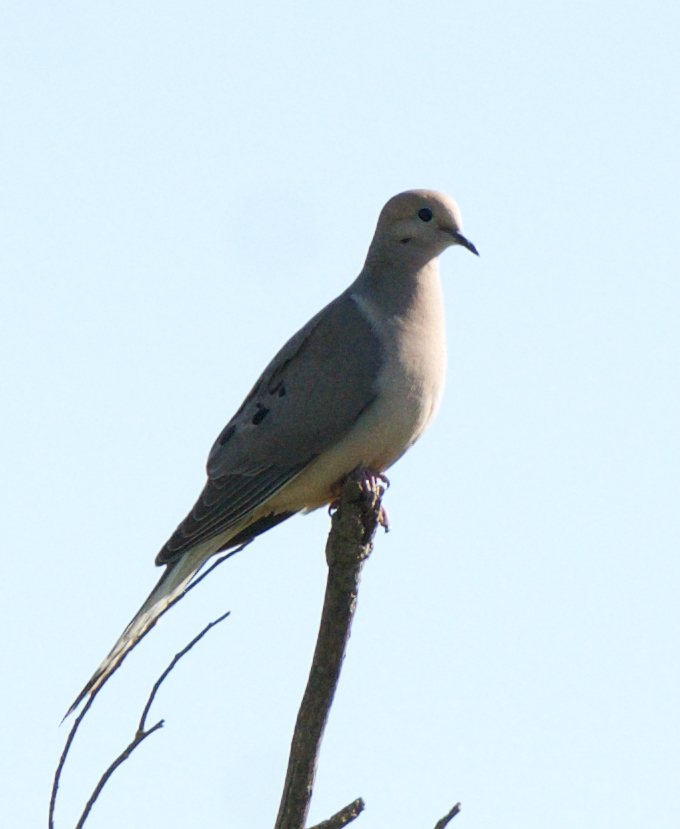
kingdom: Animalia
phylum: Chordata
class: Aves
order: Columbiformes
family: Columbidae
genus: Zenaida
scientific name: Zenaida macroura
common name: Mourning dove
